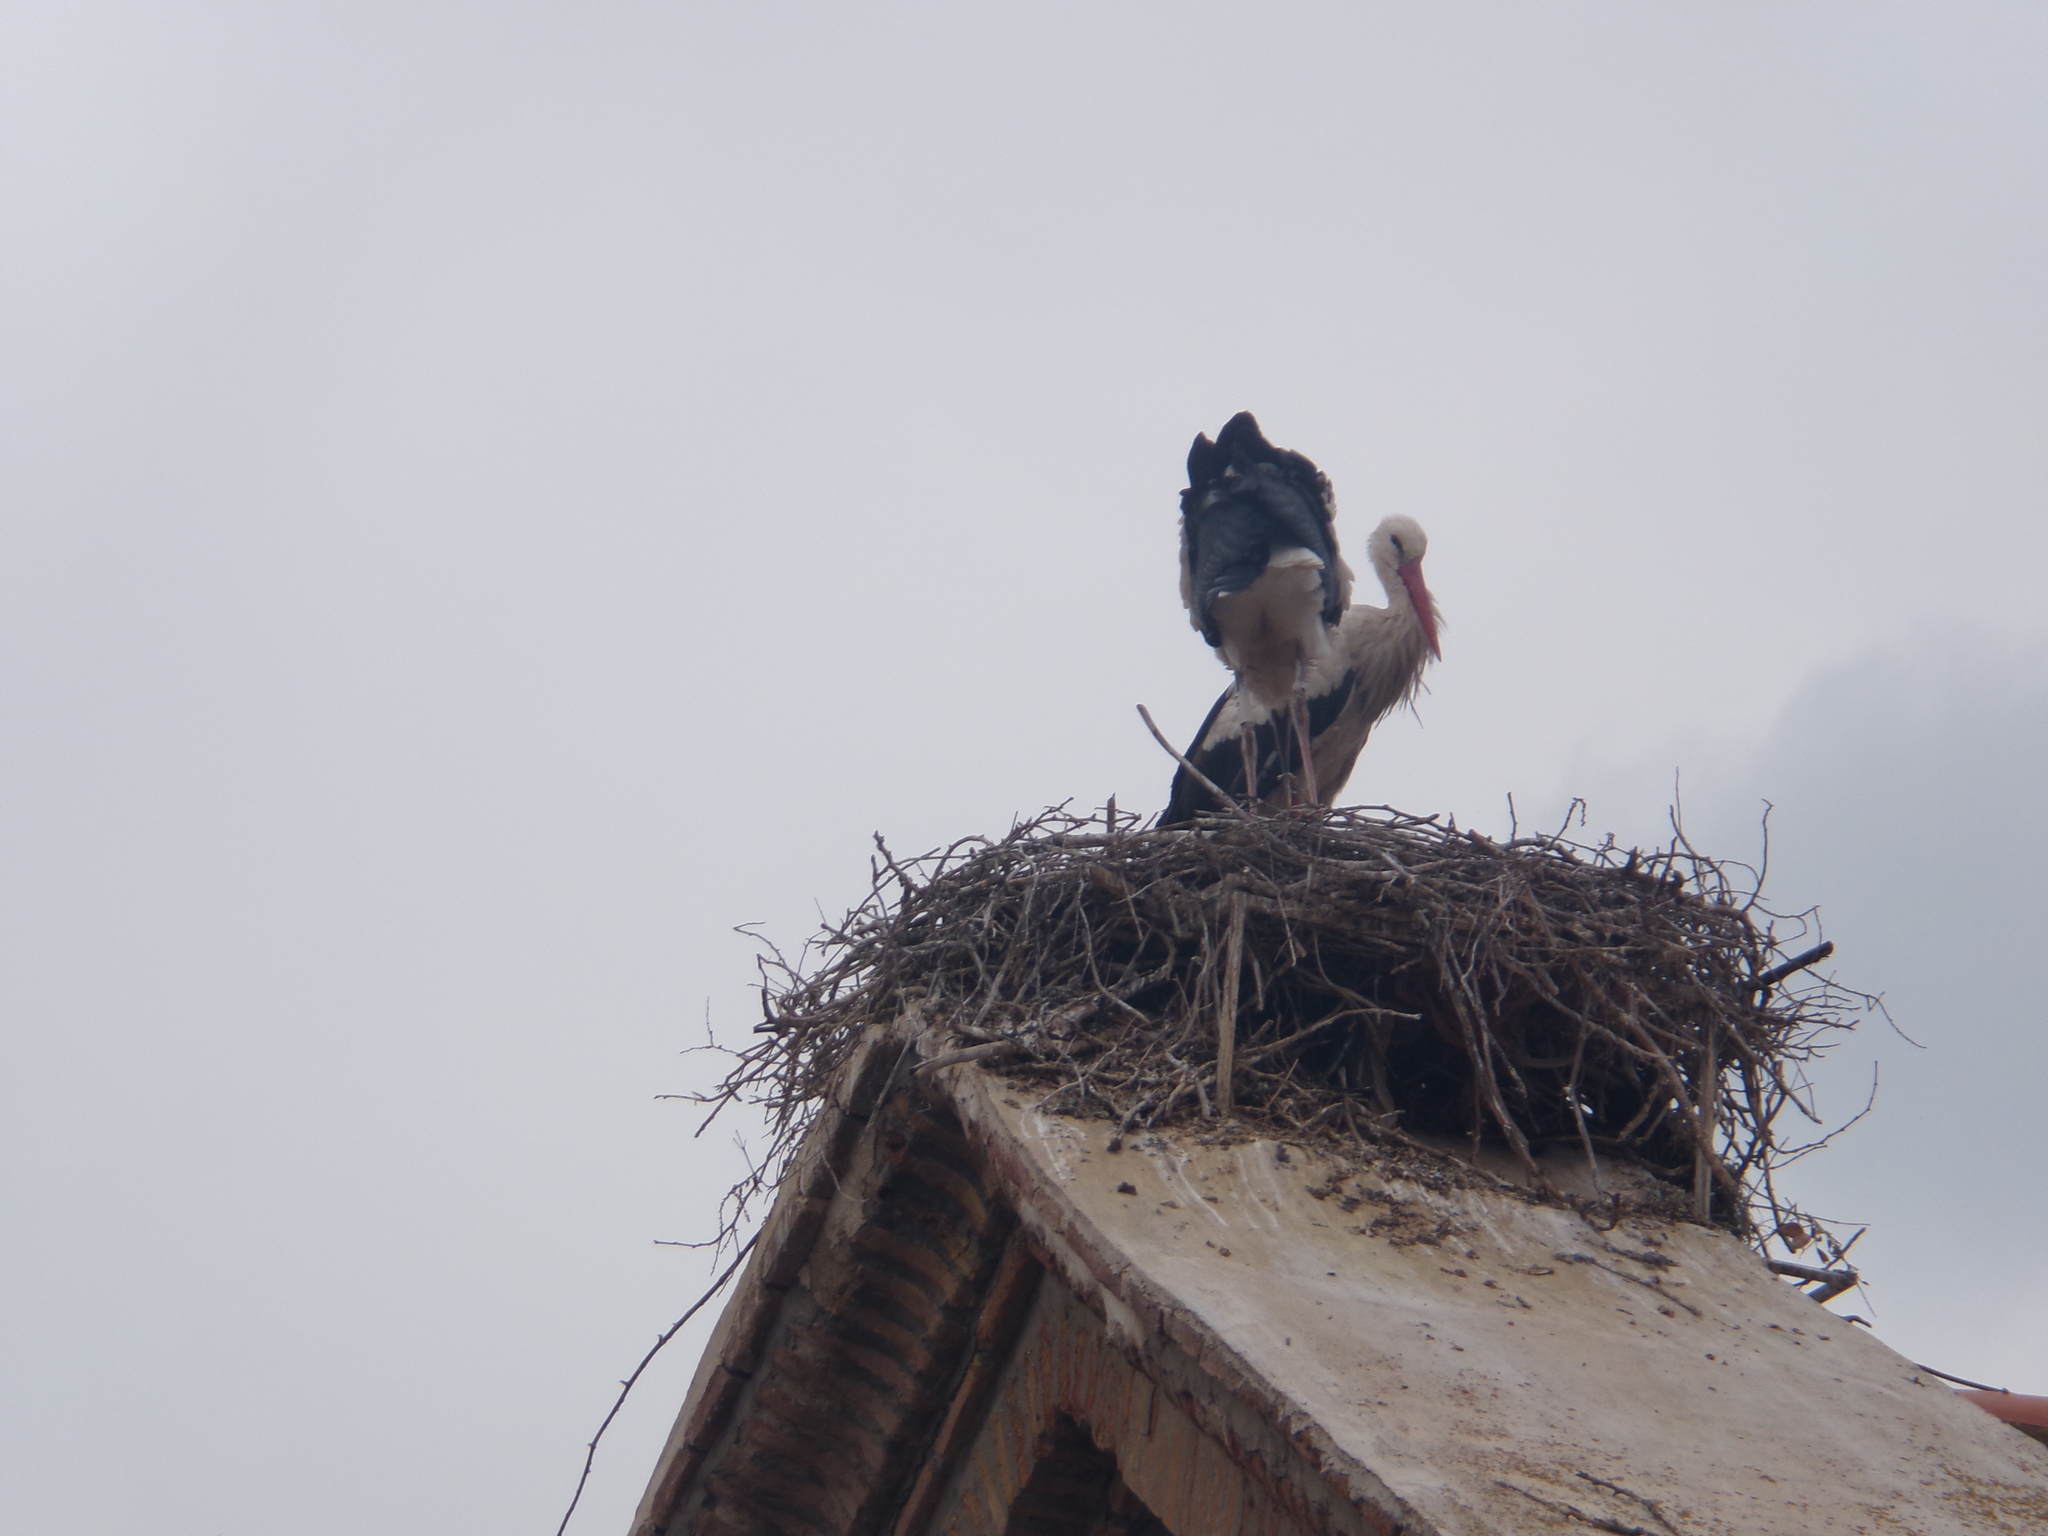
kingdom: Animalia
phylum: Chordata
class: Aves
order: Ciconiiformes
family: Ciconiidae
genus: Ciconia
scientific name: Ciconia ciconia
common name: White stork
